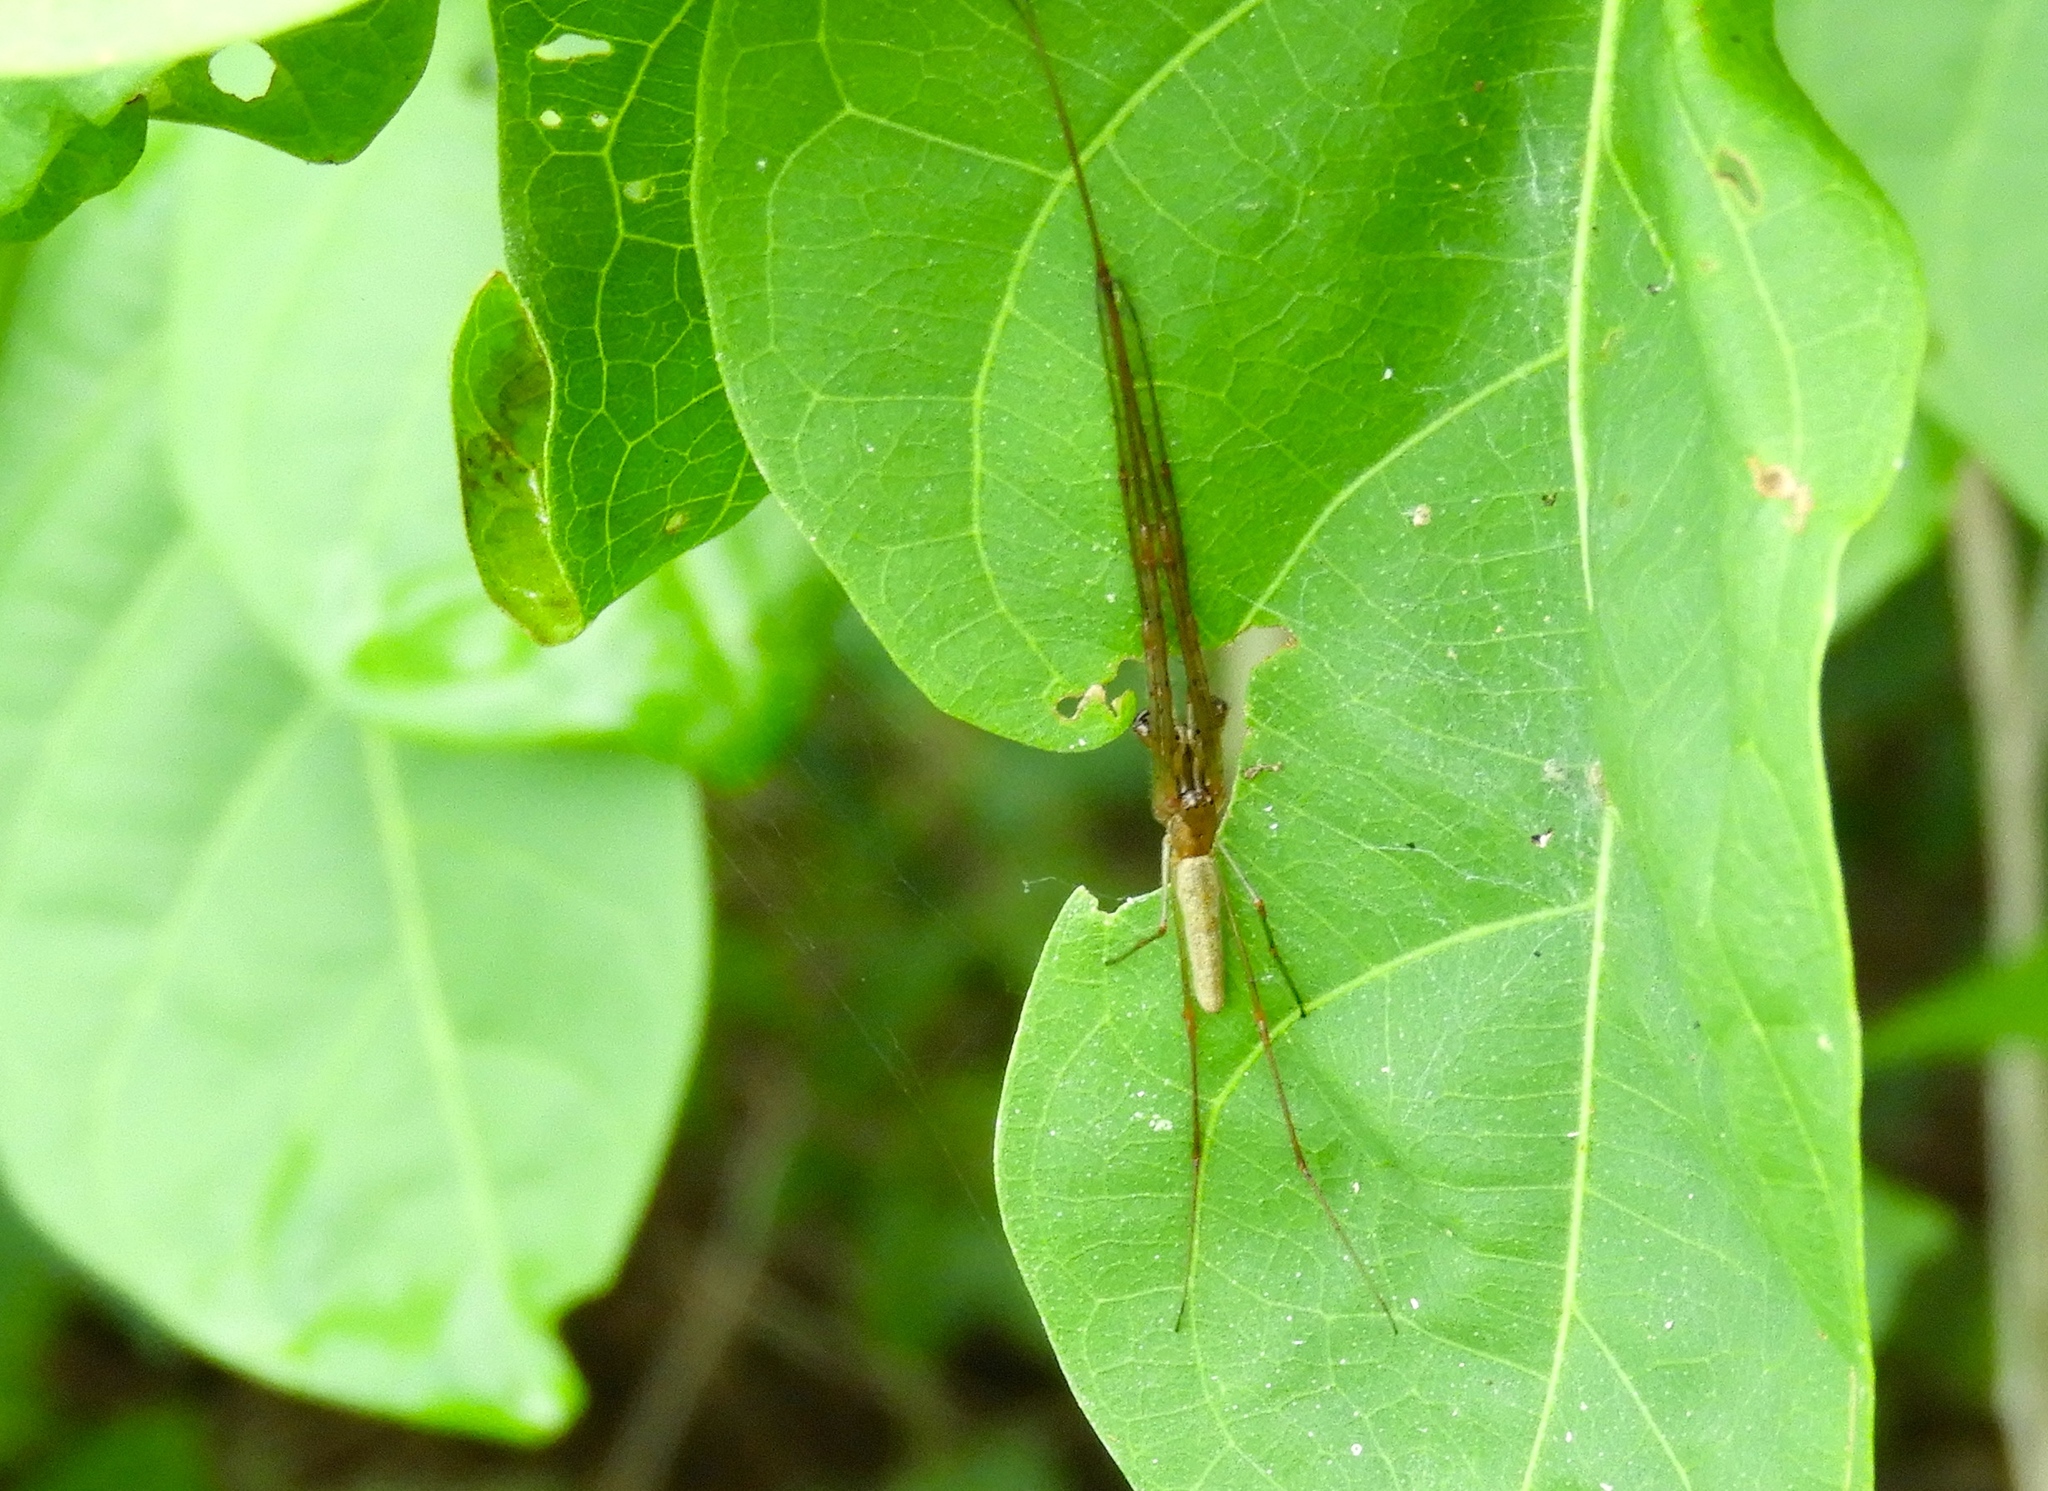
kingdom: Animalia
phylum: Arthropoda
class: Arachnida
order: Araneae
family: Tetragnathidae
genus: Tetragnatha
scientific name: Tetragnatha
